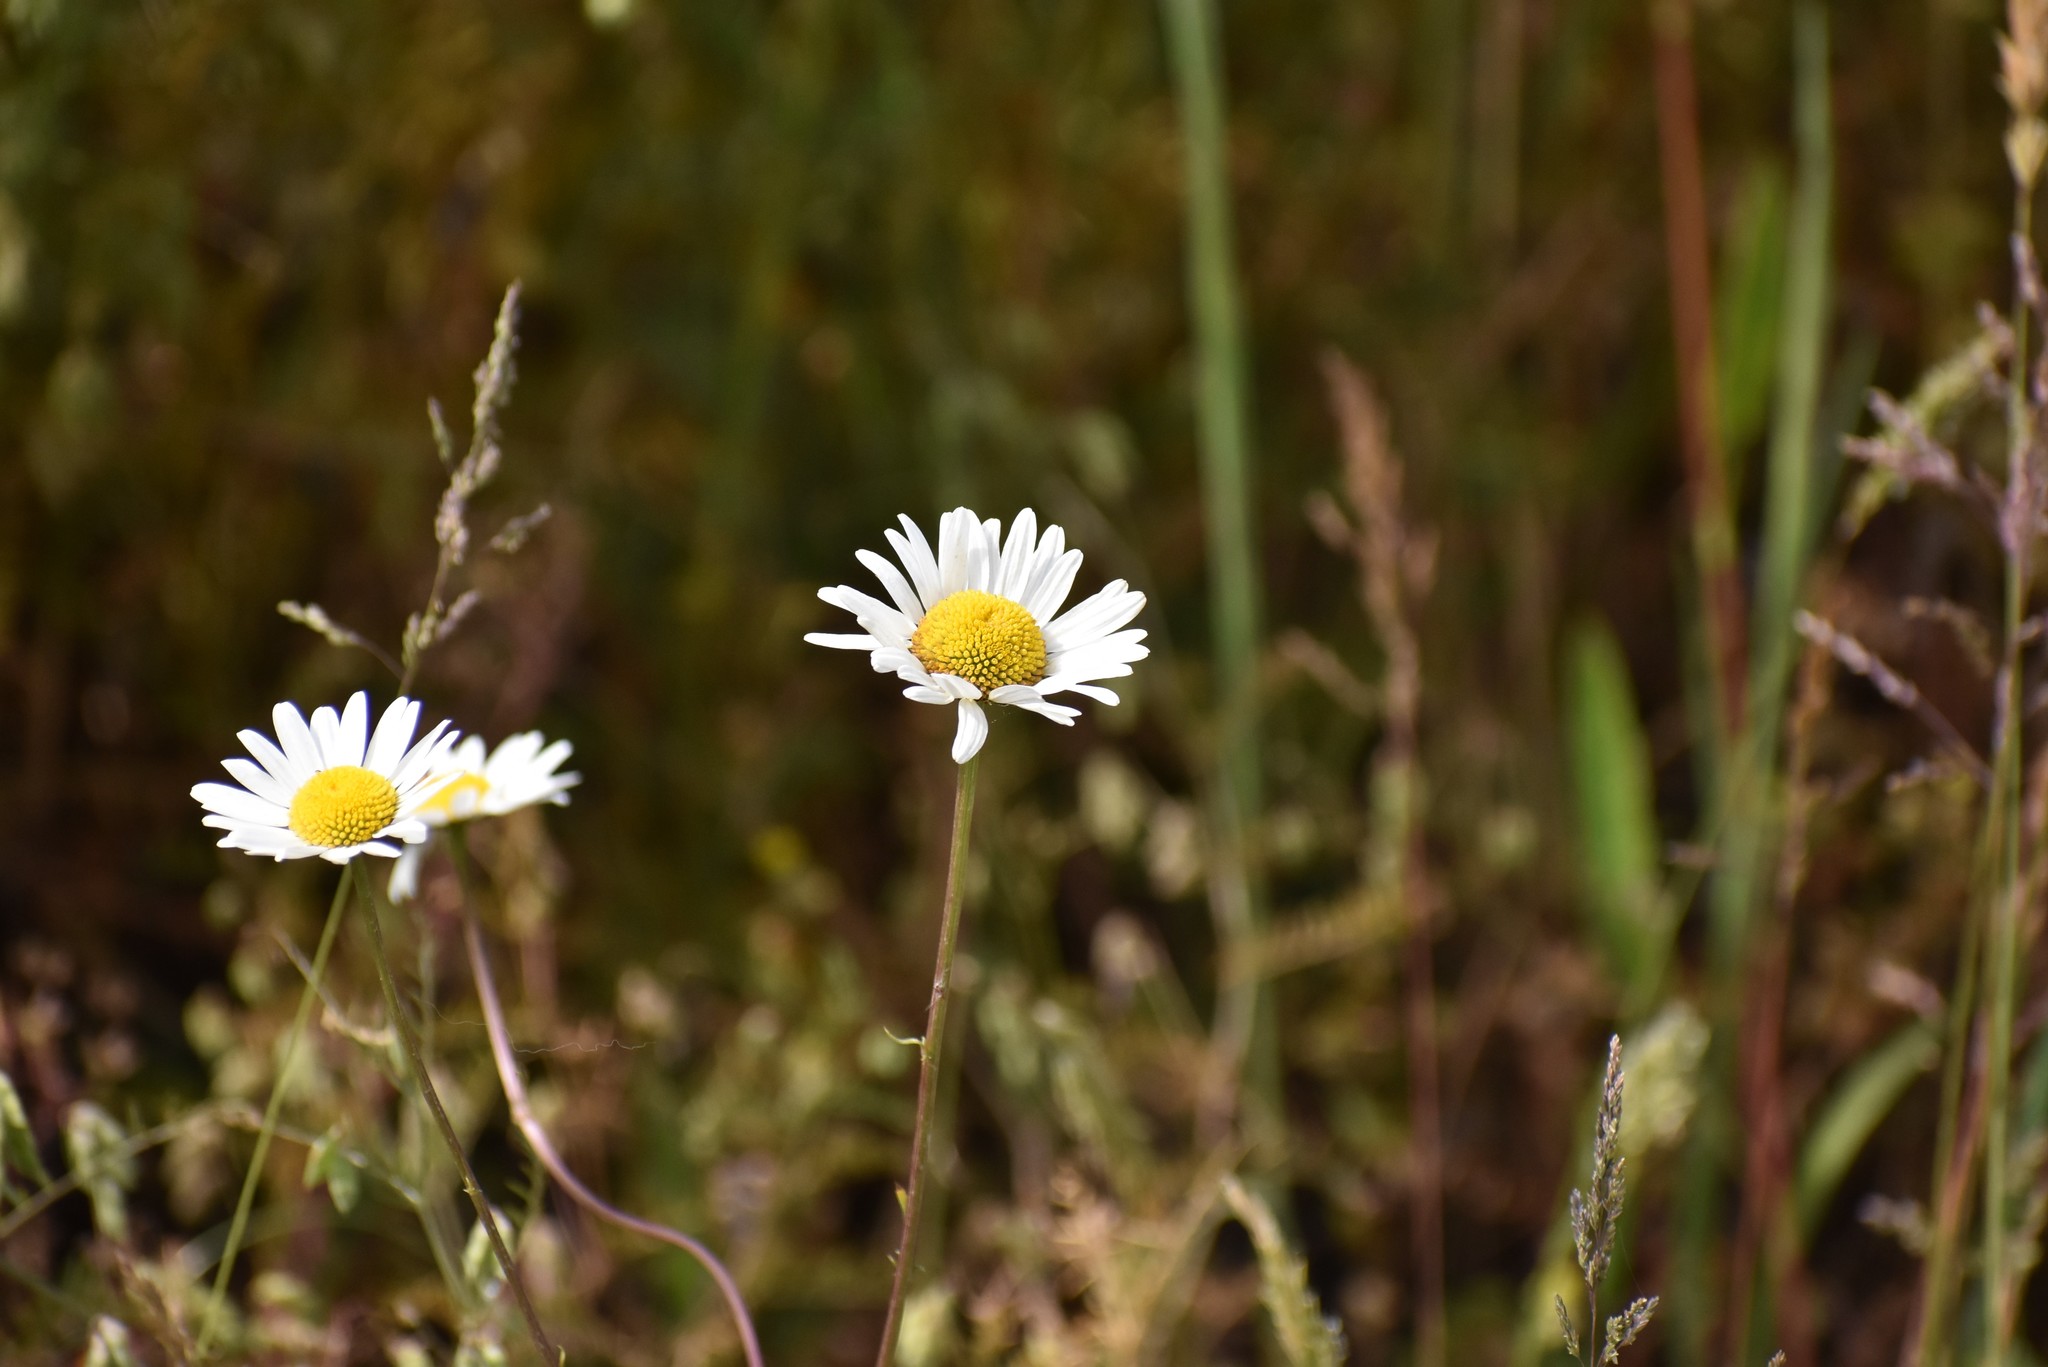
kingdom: Plantae
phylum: Tracheophyta
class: Magnoliopsida
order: Asterales
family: Asteraceae
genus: Leucanthemum
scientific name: Leucanthemum vulgare
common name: Oxeye daisy
